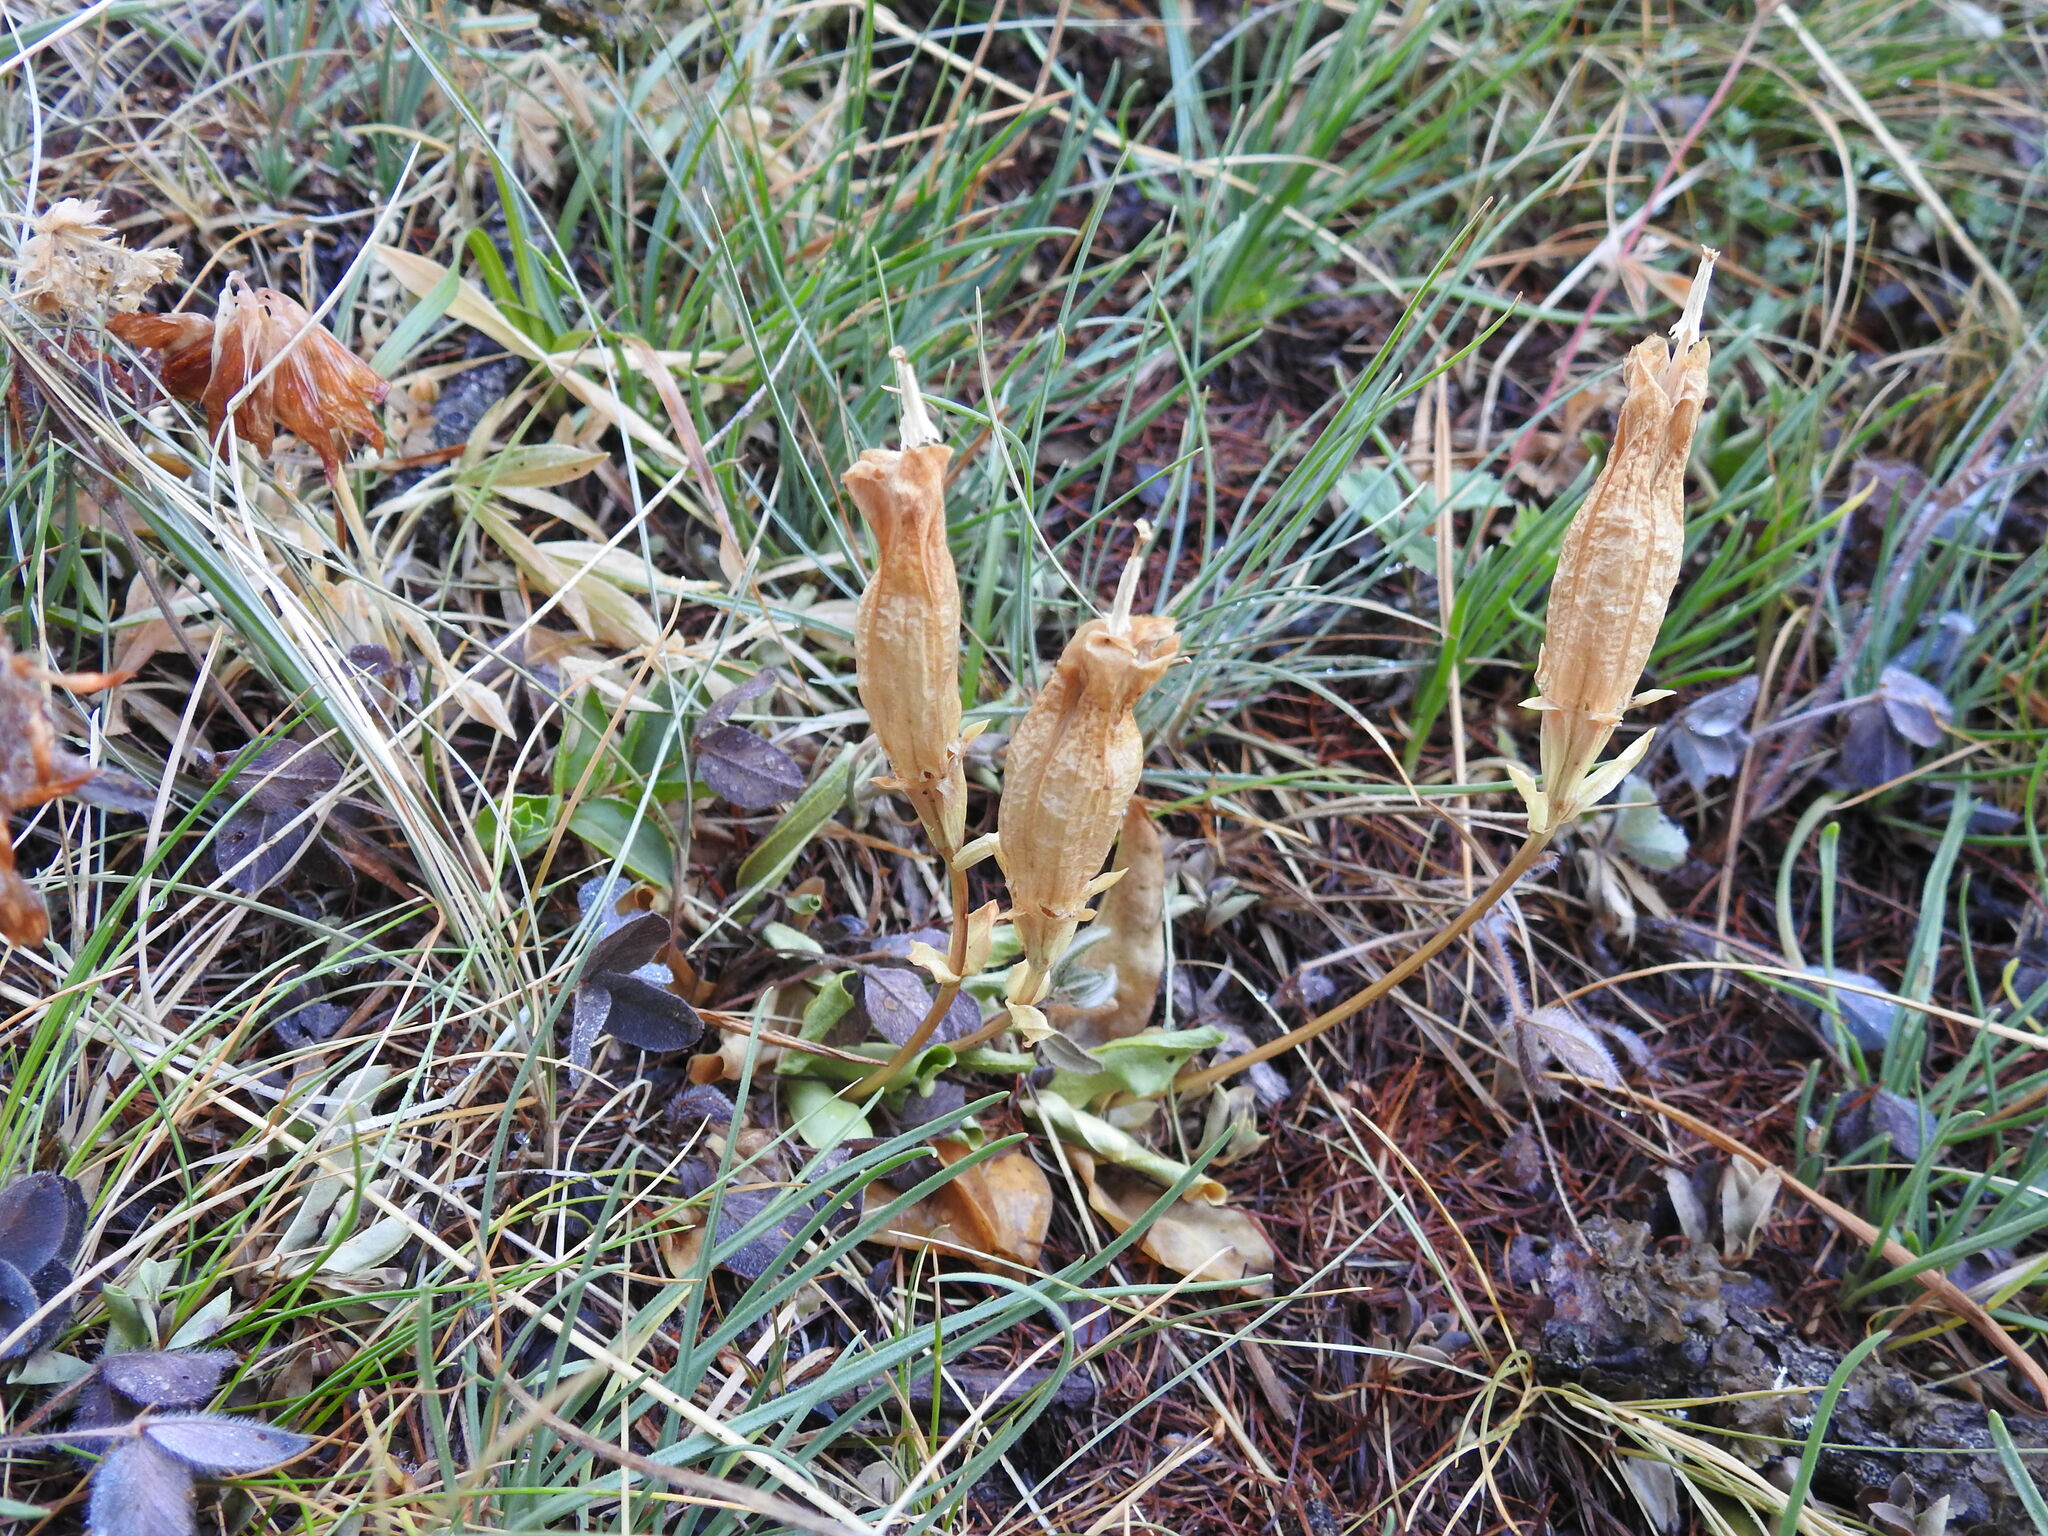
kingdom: Plantae
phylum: Tracheophyta
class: Magnoliopsida
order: Gentianales
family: Gentianaceae
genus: Gentiana
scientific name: Gentiana acaulis
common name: Trumpet gentian
